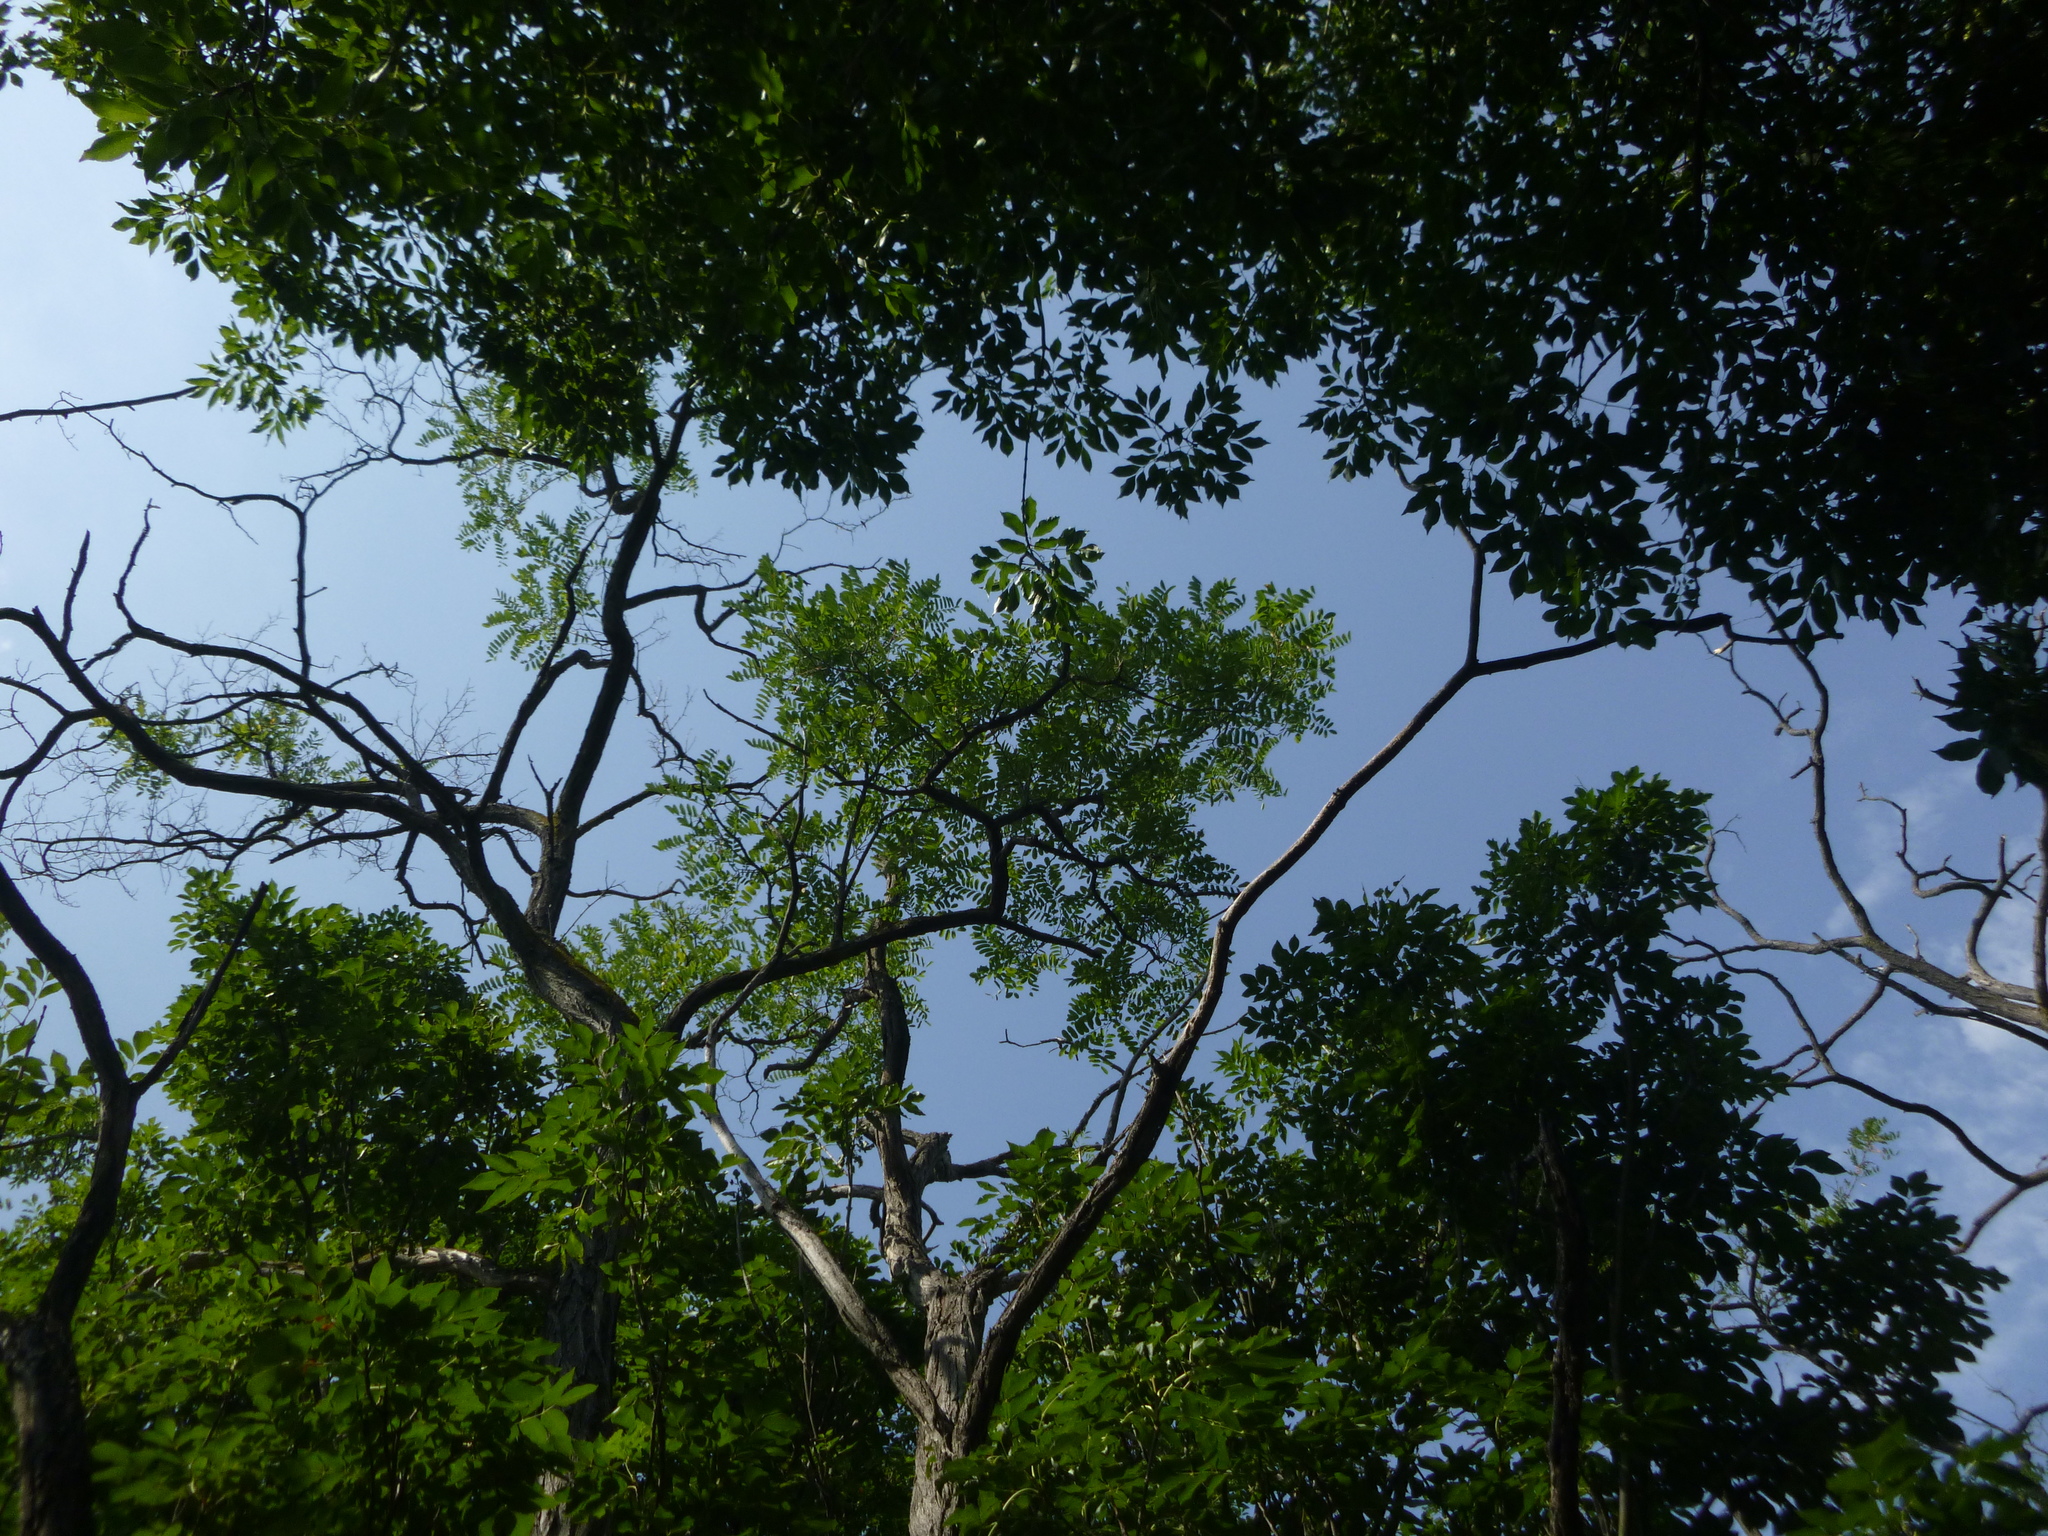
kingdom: Plantae
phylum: Tracheophyta
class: Magnoliopsida
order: Fabales
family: Fabaceae
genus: Robinia
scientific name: Robinia pseudoacacia
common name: Black locust
